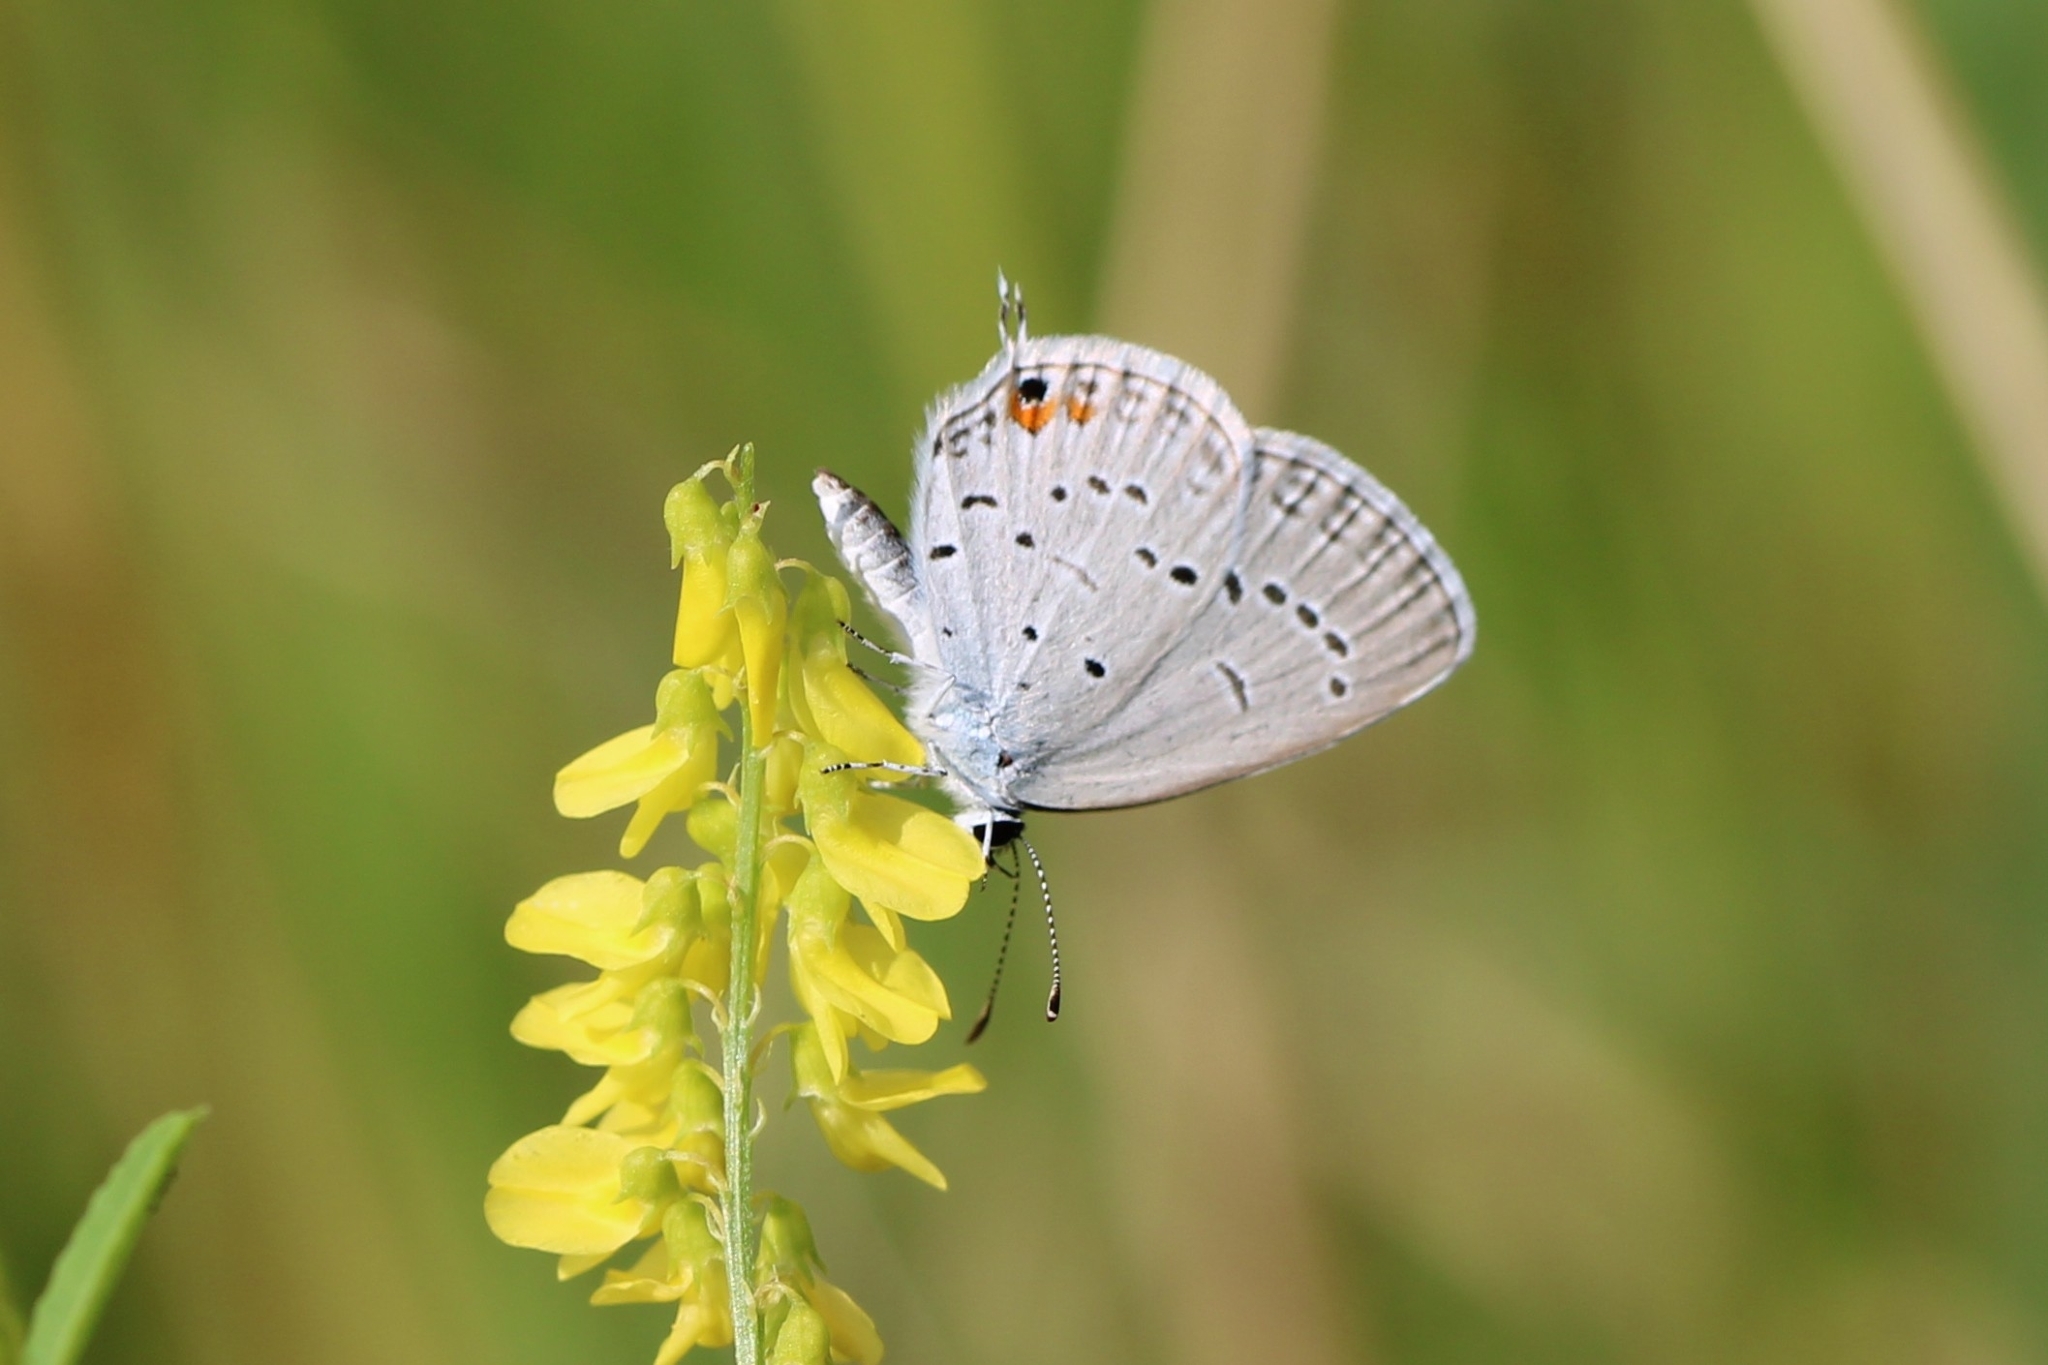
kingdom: Animalia
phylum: Arthropoda
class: Insecta
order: Lepidoptera
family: Lycaenidae
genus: Elkalyce
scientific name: Elkalyce comyntas
